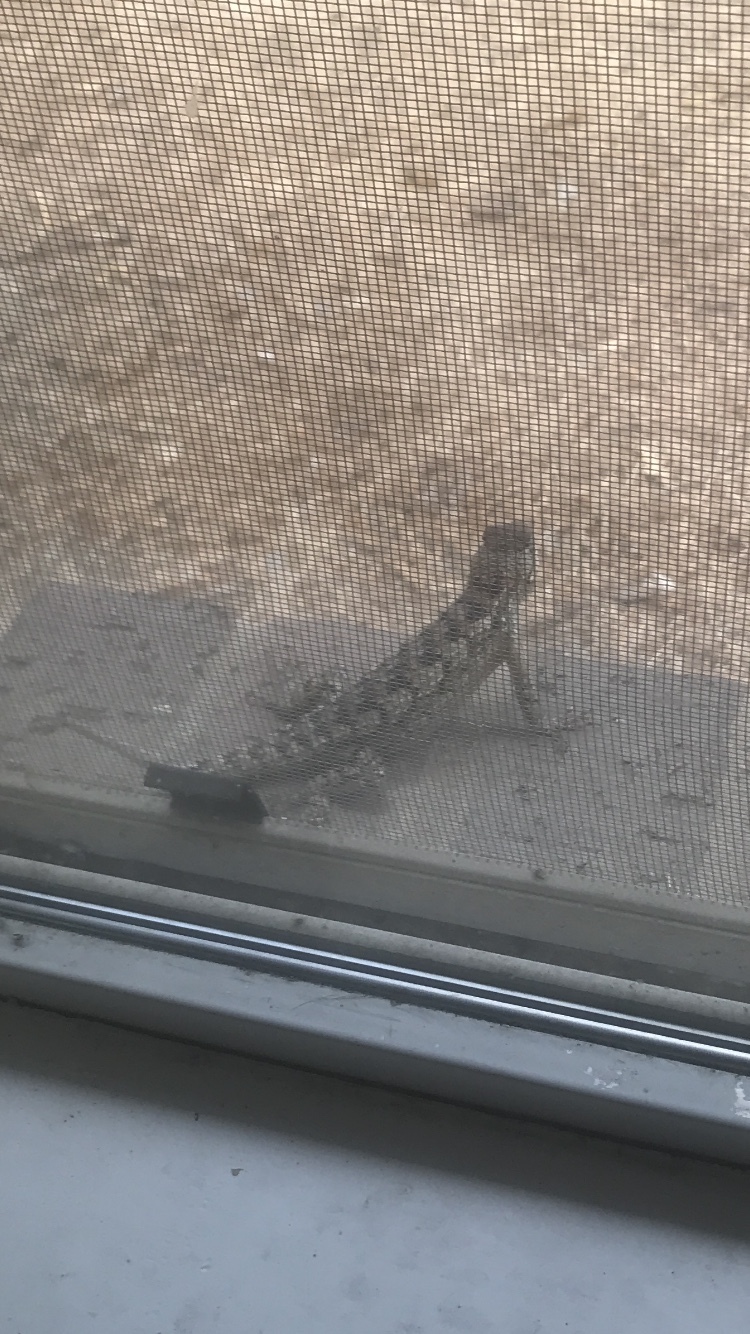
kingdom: Animalia
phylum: Chordata
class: Squamata
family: Phrynosomatidae
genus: Sceloporus
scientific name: Sceloporus olivaceus
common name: Texas spiny lizard
